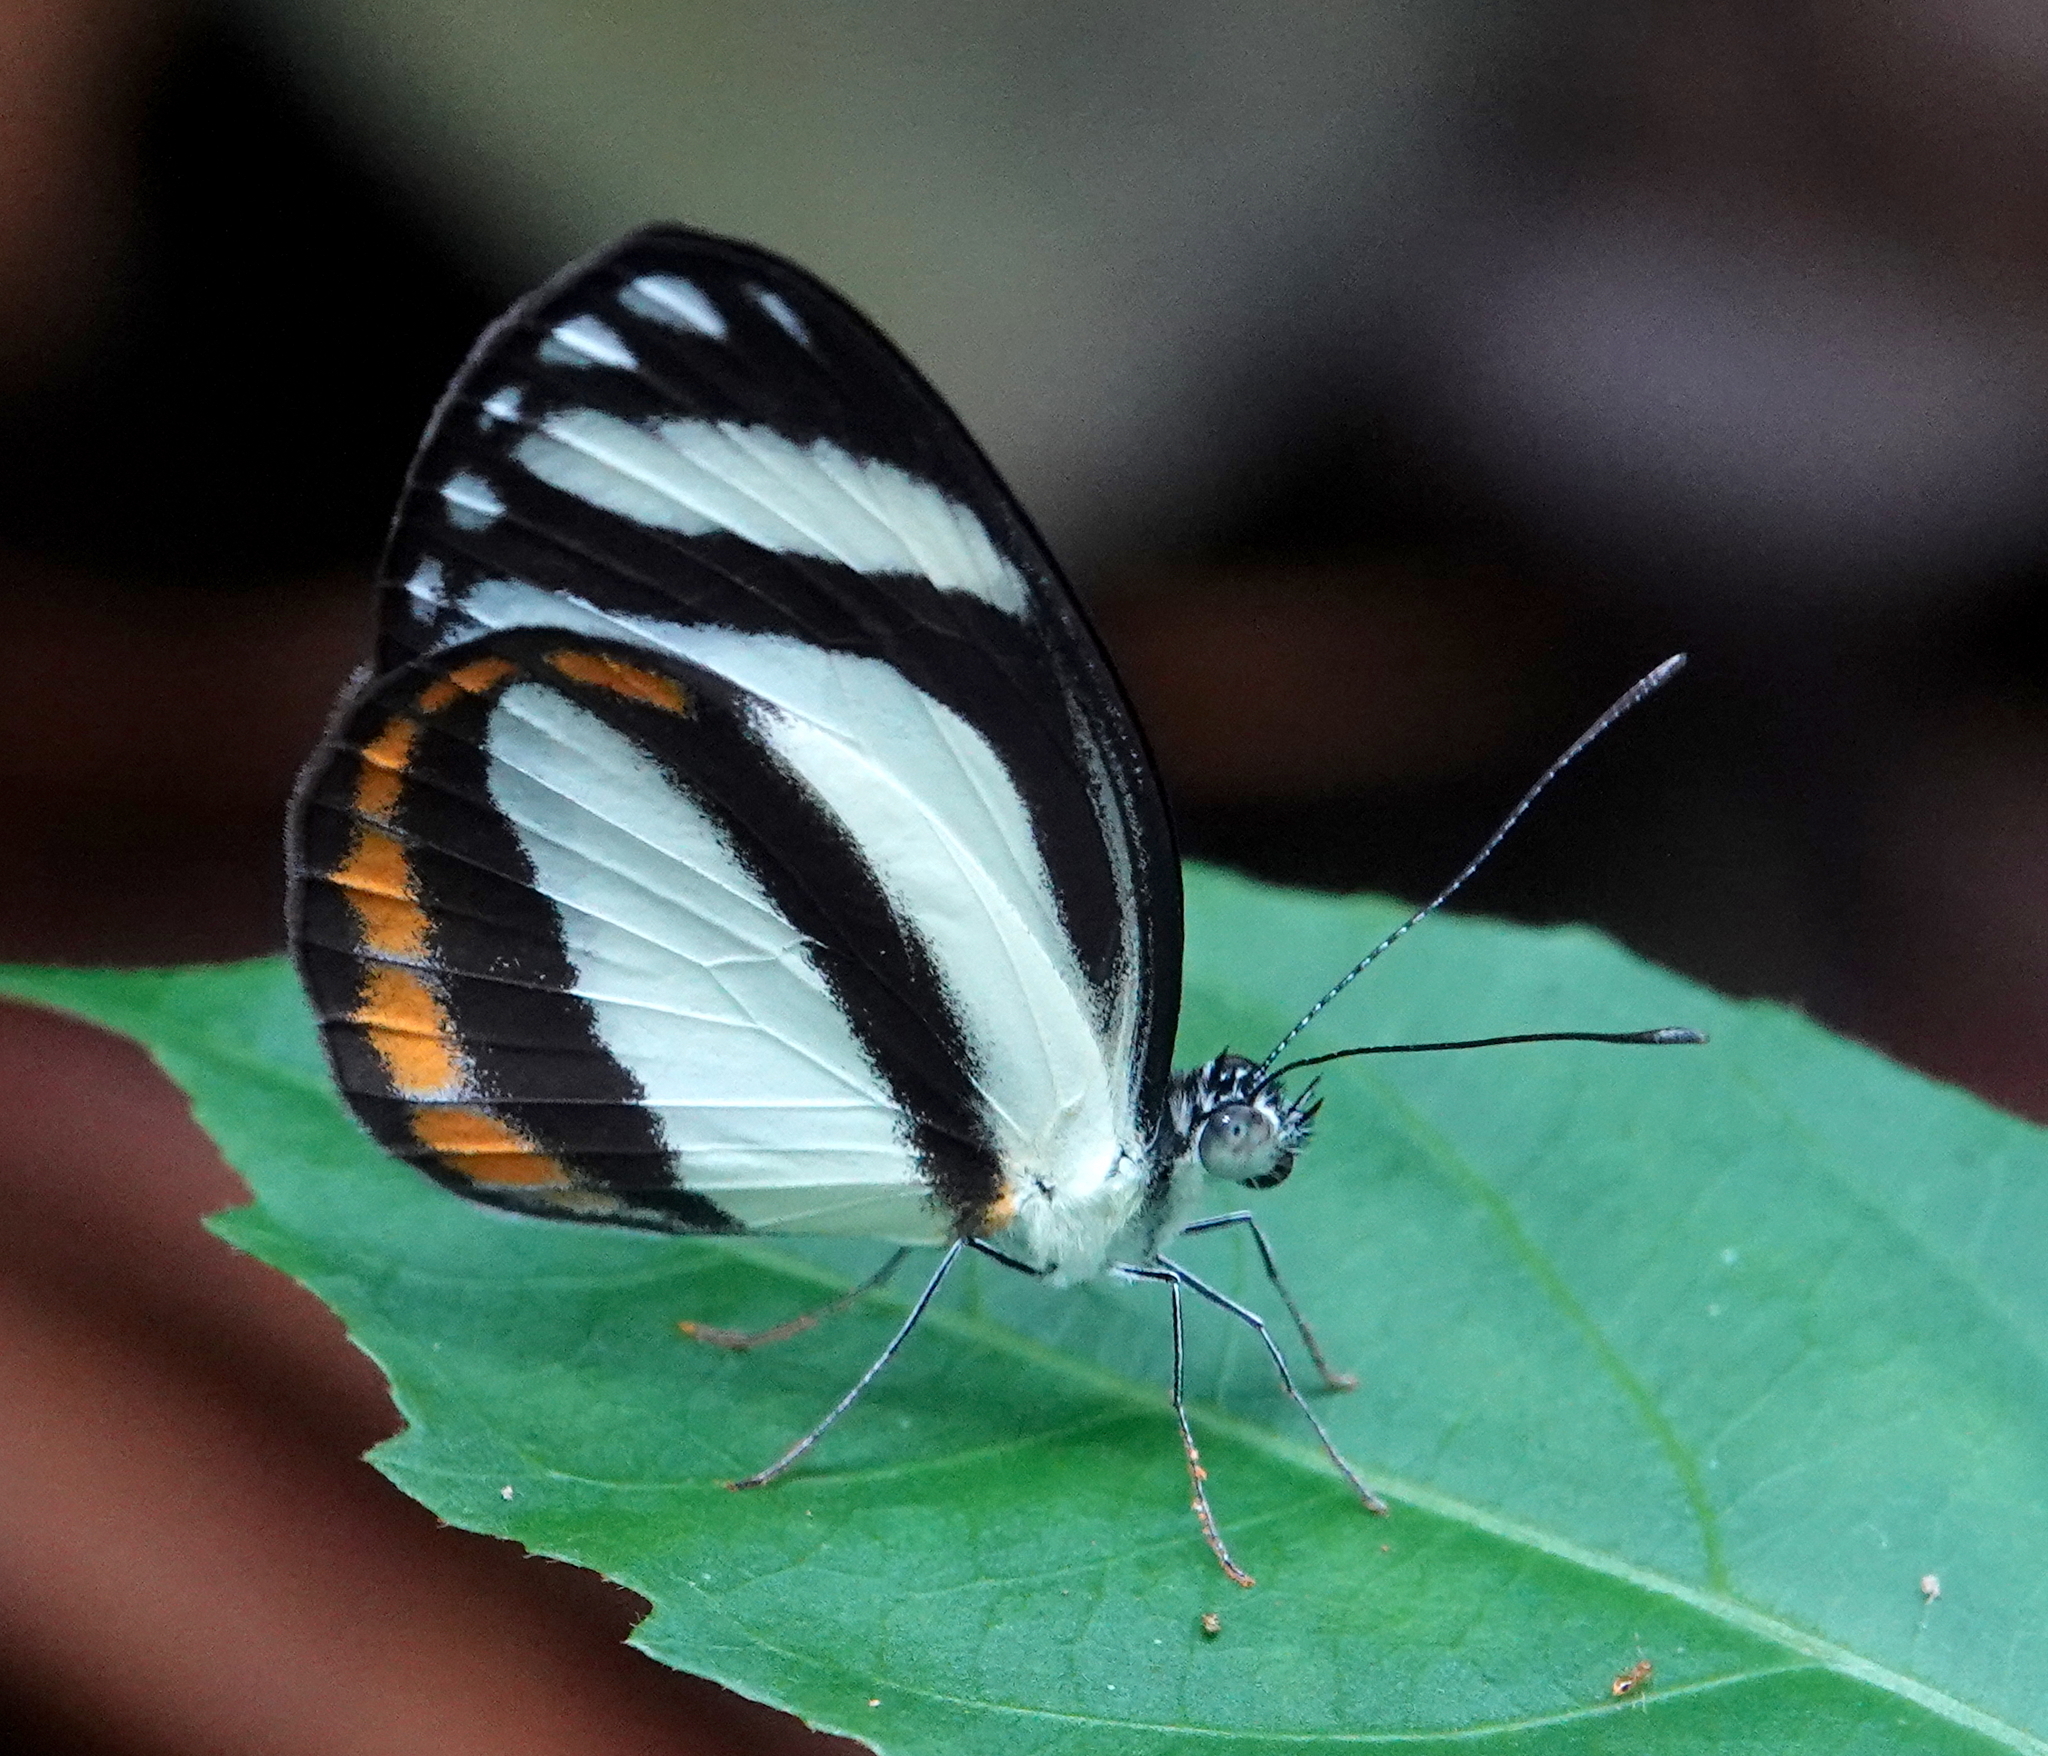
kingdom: Animalia
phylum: Arthropoda
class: Insecta
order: Lepidoptera
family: Pieridae
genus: Itaballia
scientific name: Itaballia pandosia
